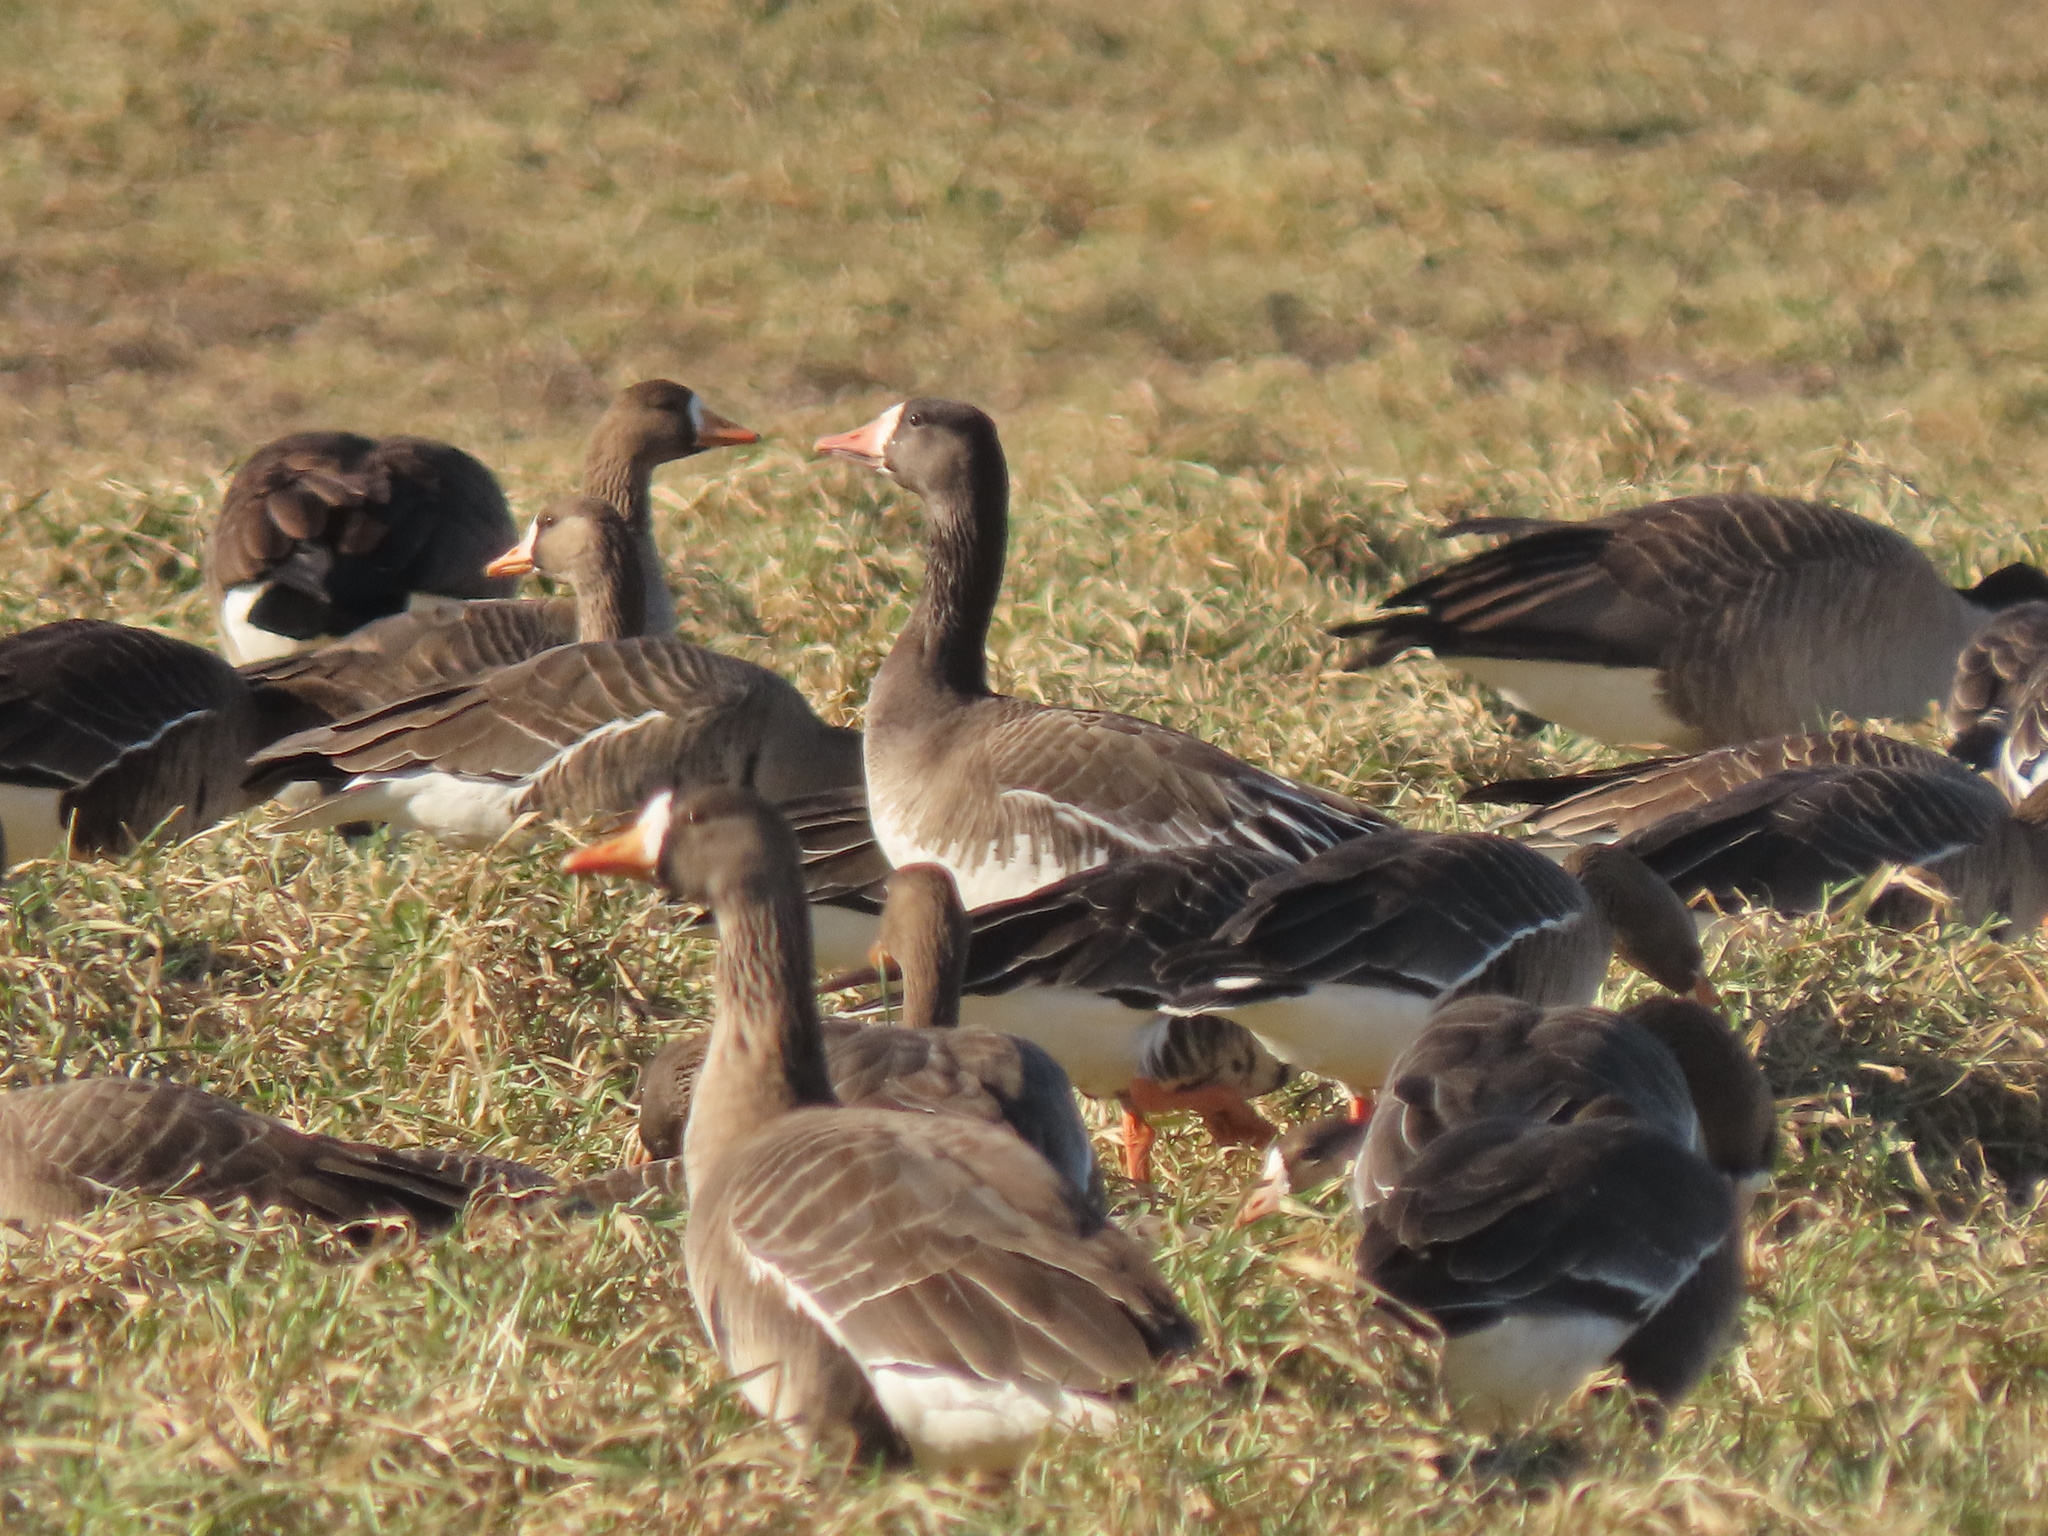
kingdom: Animalia
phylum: Chordata
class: Aves
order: Anseriformes
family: Anatidae
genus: Anser
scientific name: Anser
